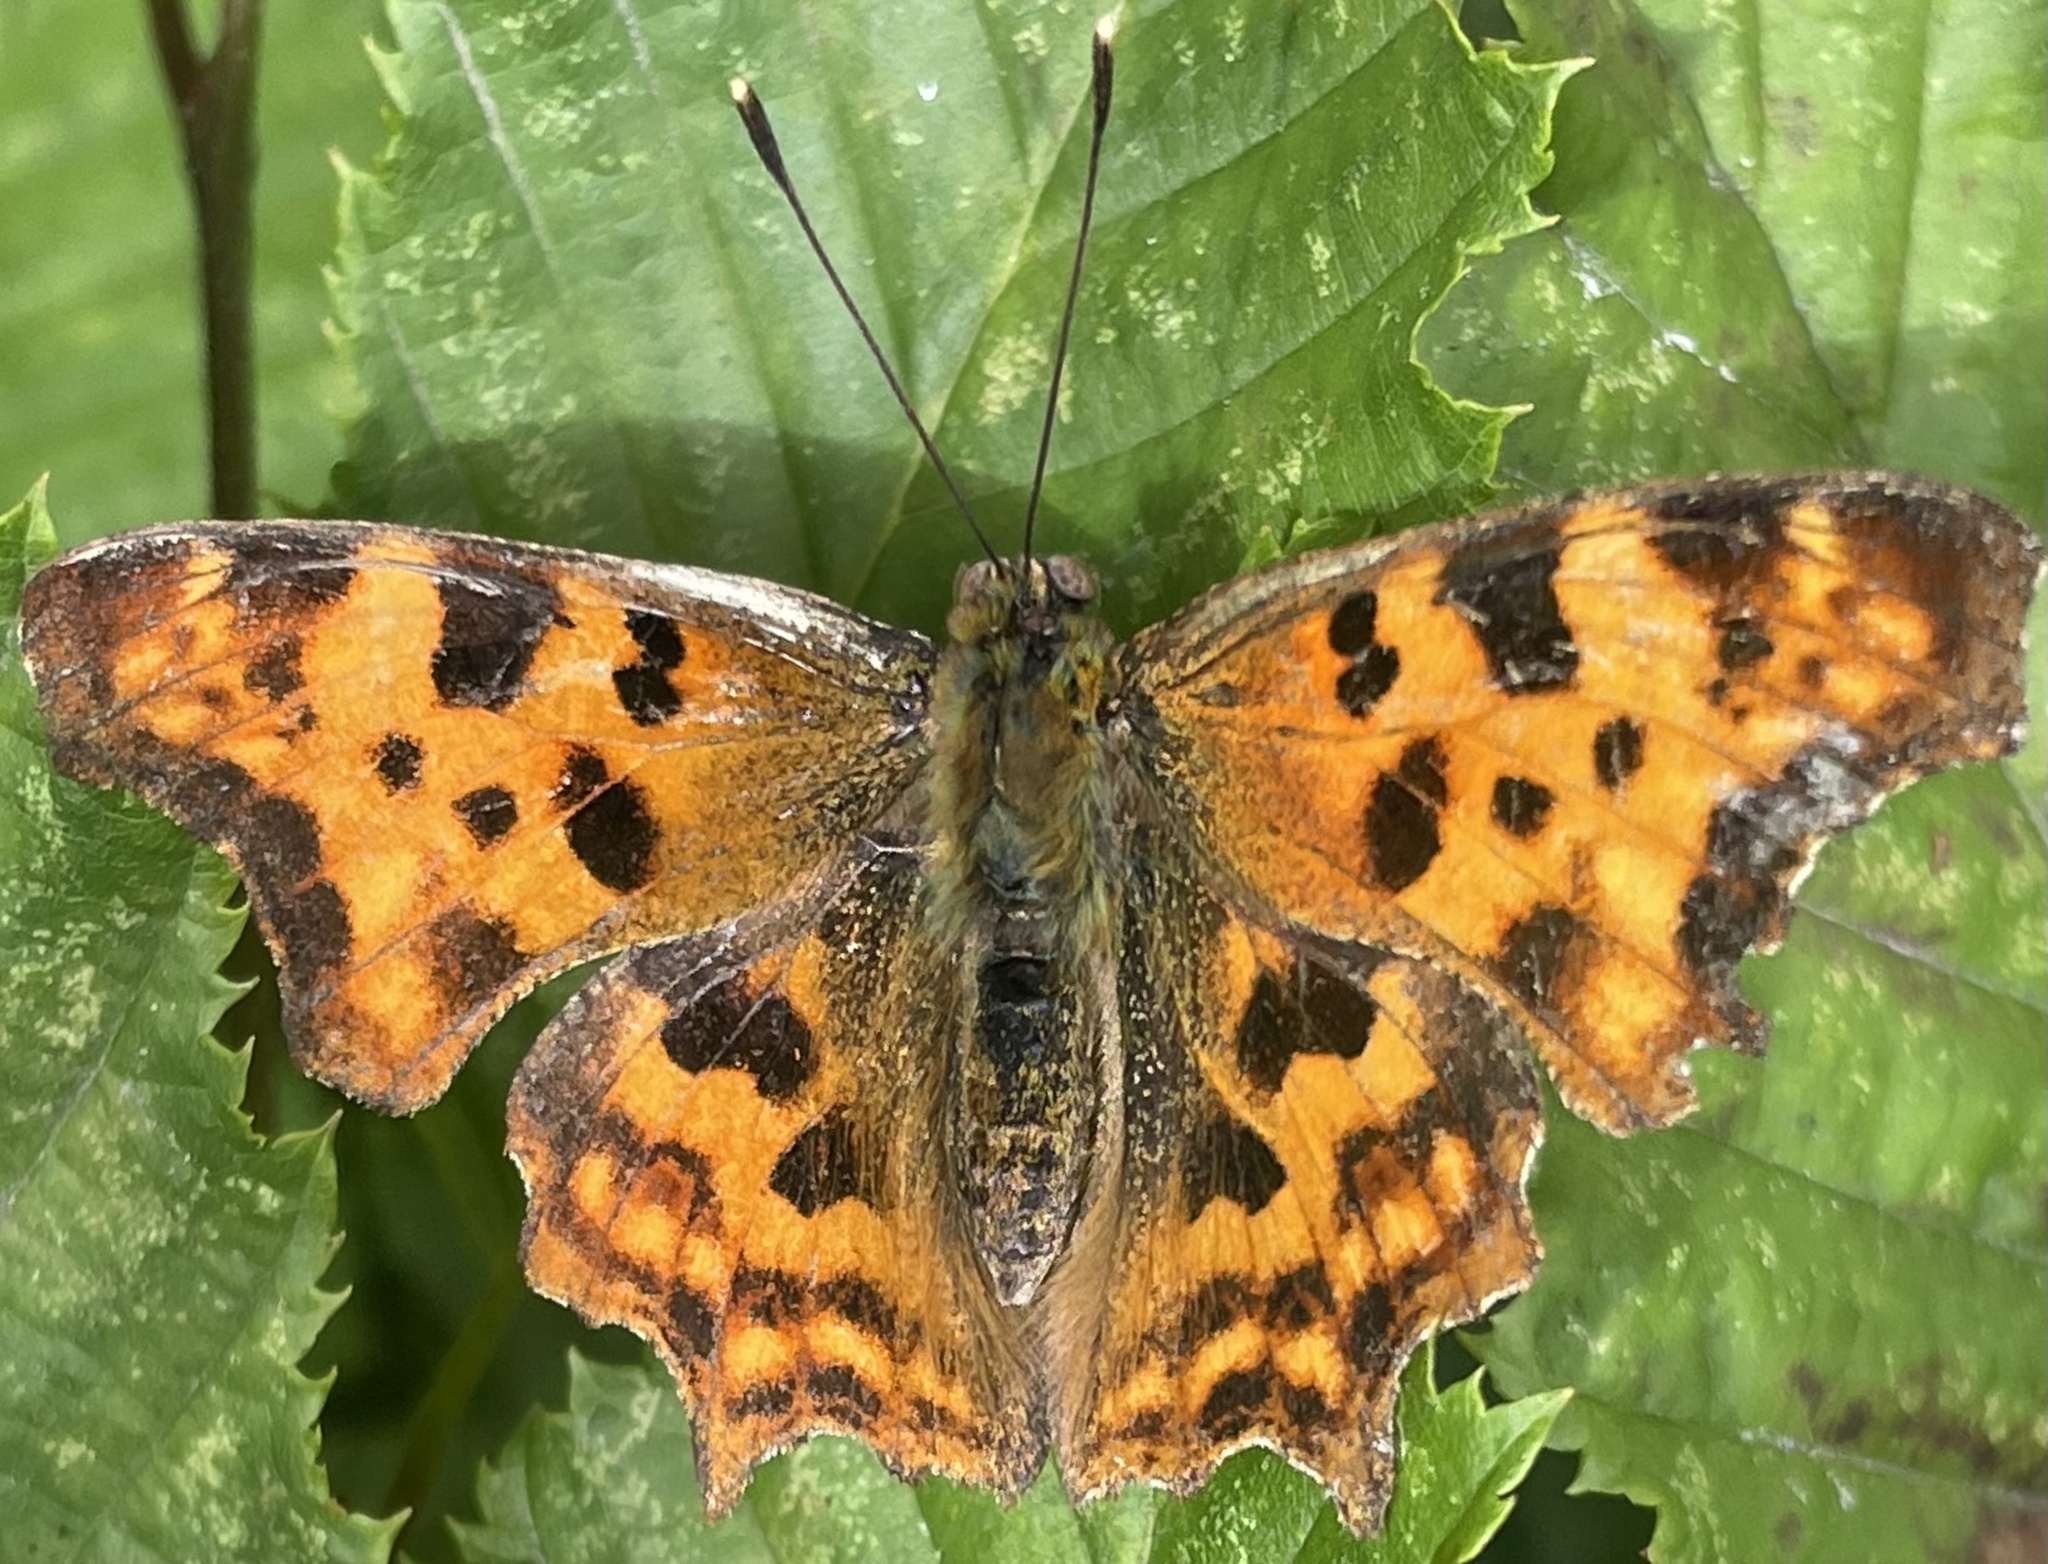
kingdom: Animalia
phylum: Arthropoda
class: Insecta
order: Lepidoptera
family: Nymphalidae
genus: Polygonia
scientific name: Polygonia c-album
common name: Comma
